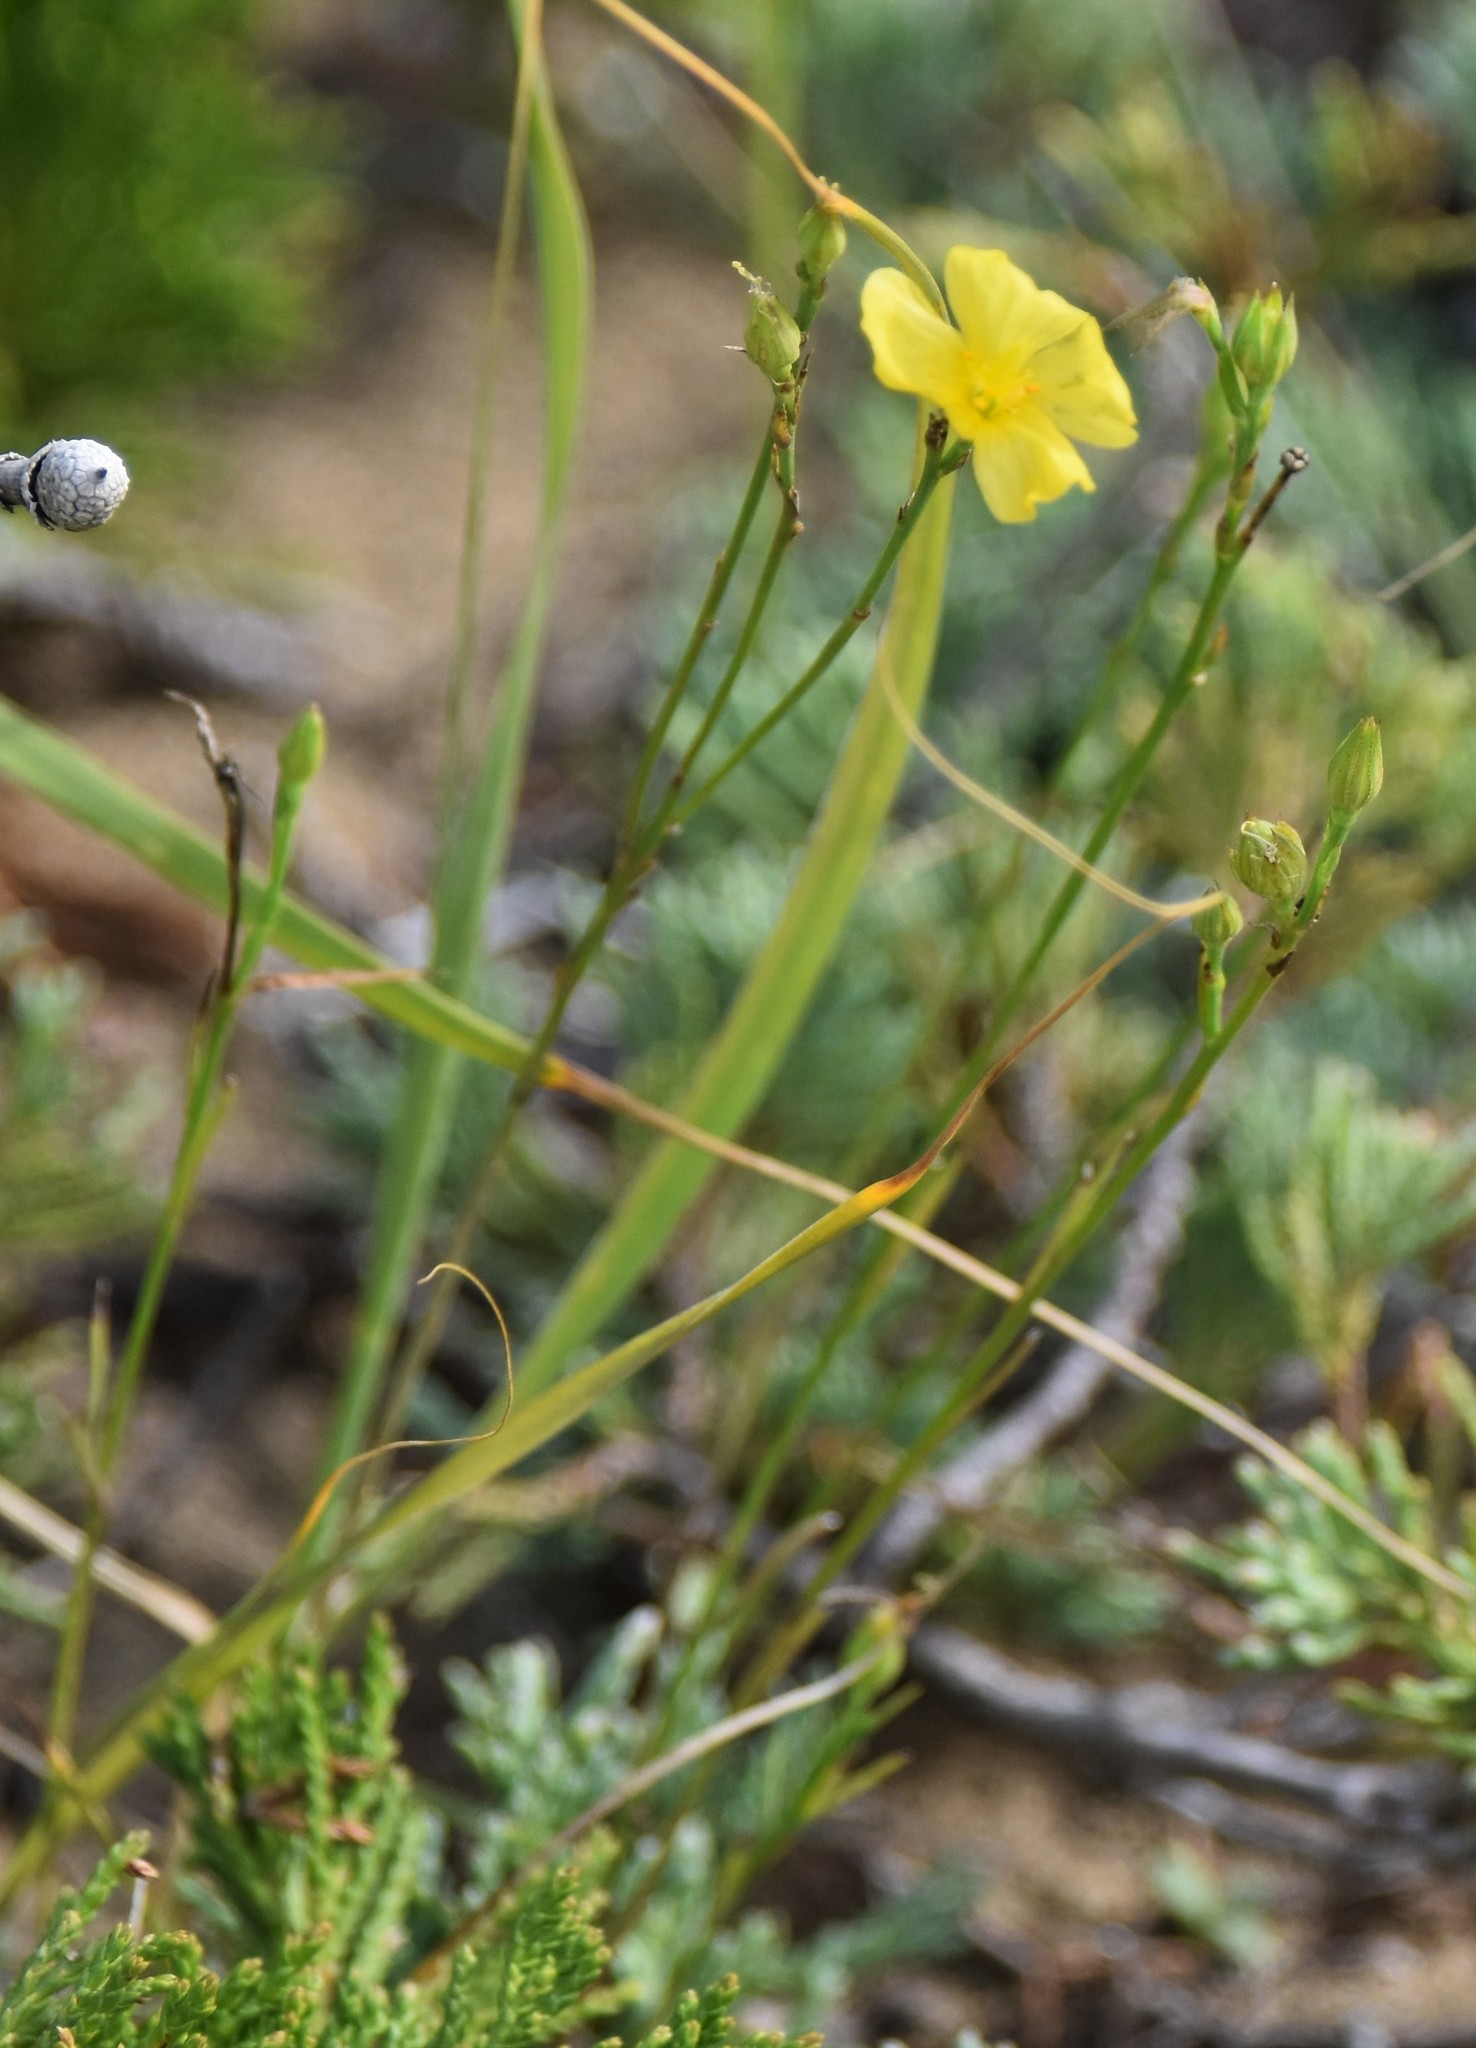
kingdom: Plantae
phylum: Tracheophyta
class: Magnoliopsida
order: Malpighiales
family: Linaceae
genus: Linum
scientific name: Linum rigidum
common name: Stiff-stem flax
